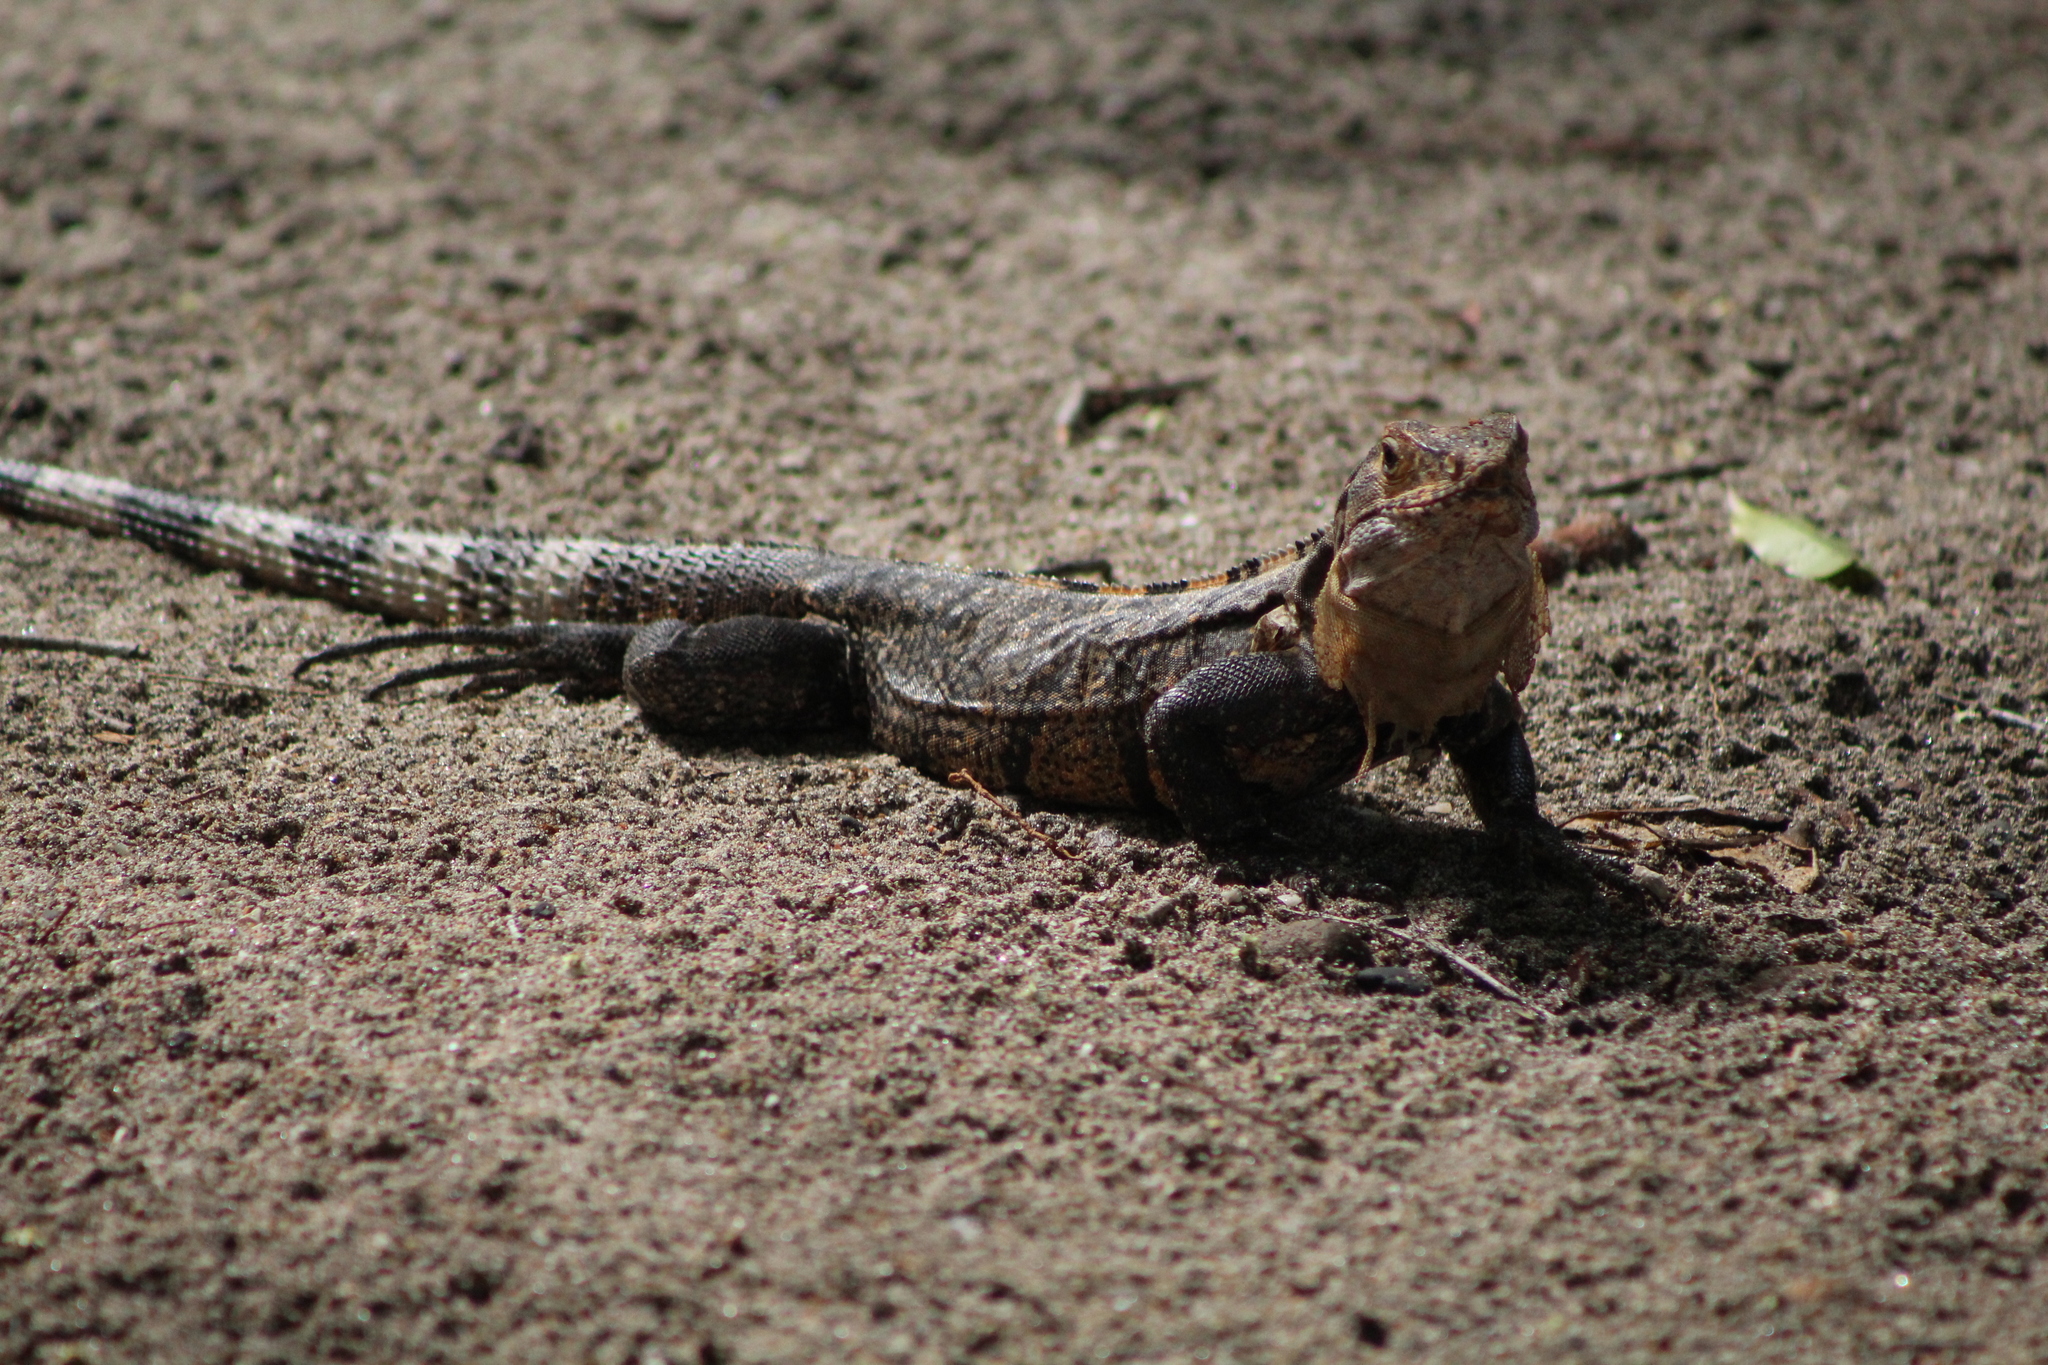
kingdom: Animalia
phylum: Chordata
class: Squamata
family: Iguanidae
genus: Ctenosaura
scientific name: Ctenosaura similis
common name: Black spiny-tailed iguana
